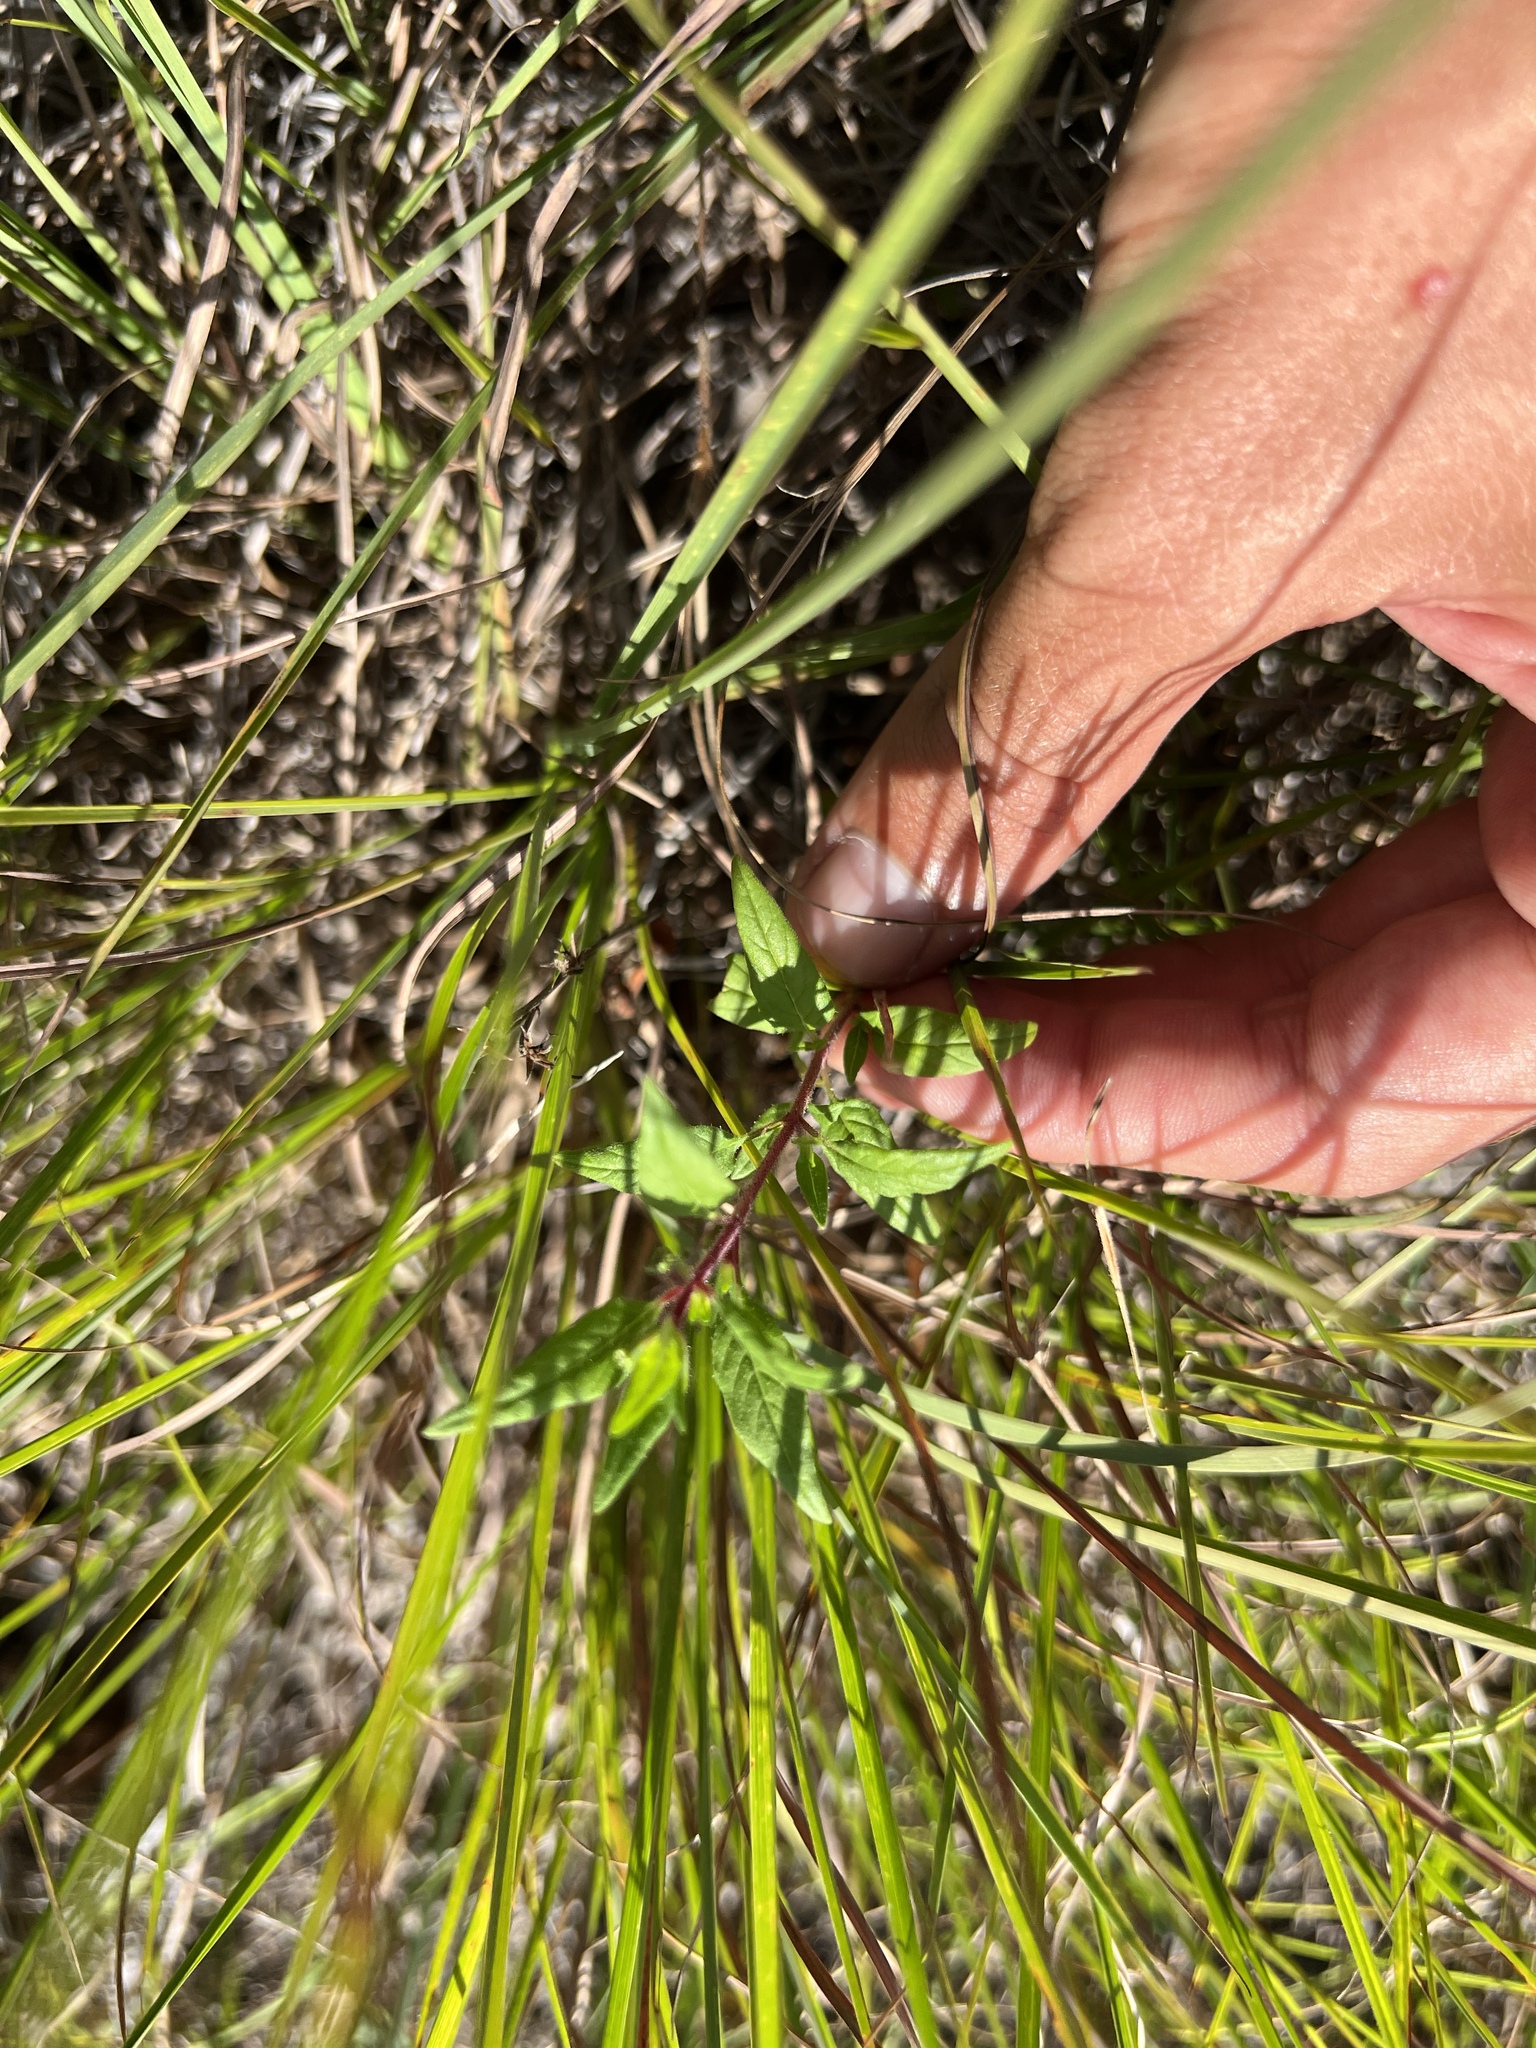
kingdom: Plantae
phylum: Tracheophyta
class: Magnoliopsida
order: Myrtales
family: Lythraceae
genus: Cuphea
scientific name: Cuphea viscosissima
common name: Clammy cuphea
